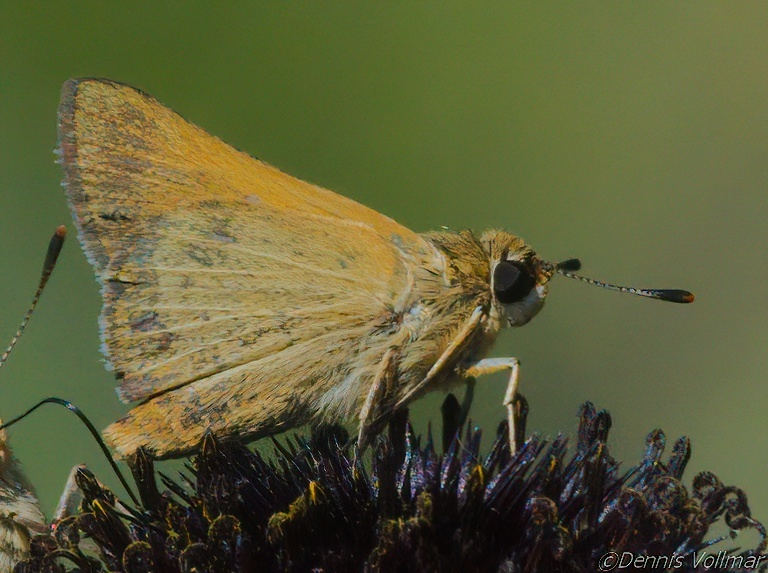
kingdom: Animalia
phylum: Arthropoda
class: Insecta
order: Lepidoptera
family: Hesperiidae
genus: Atrytone
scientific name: Atrytone arogos
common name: Arogos skipper
